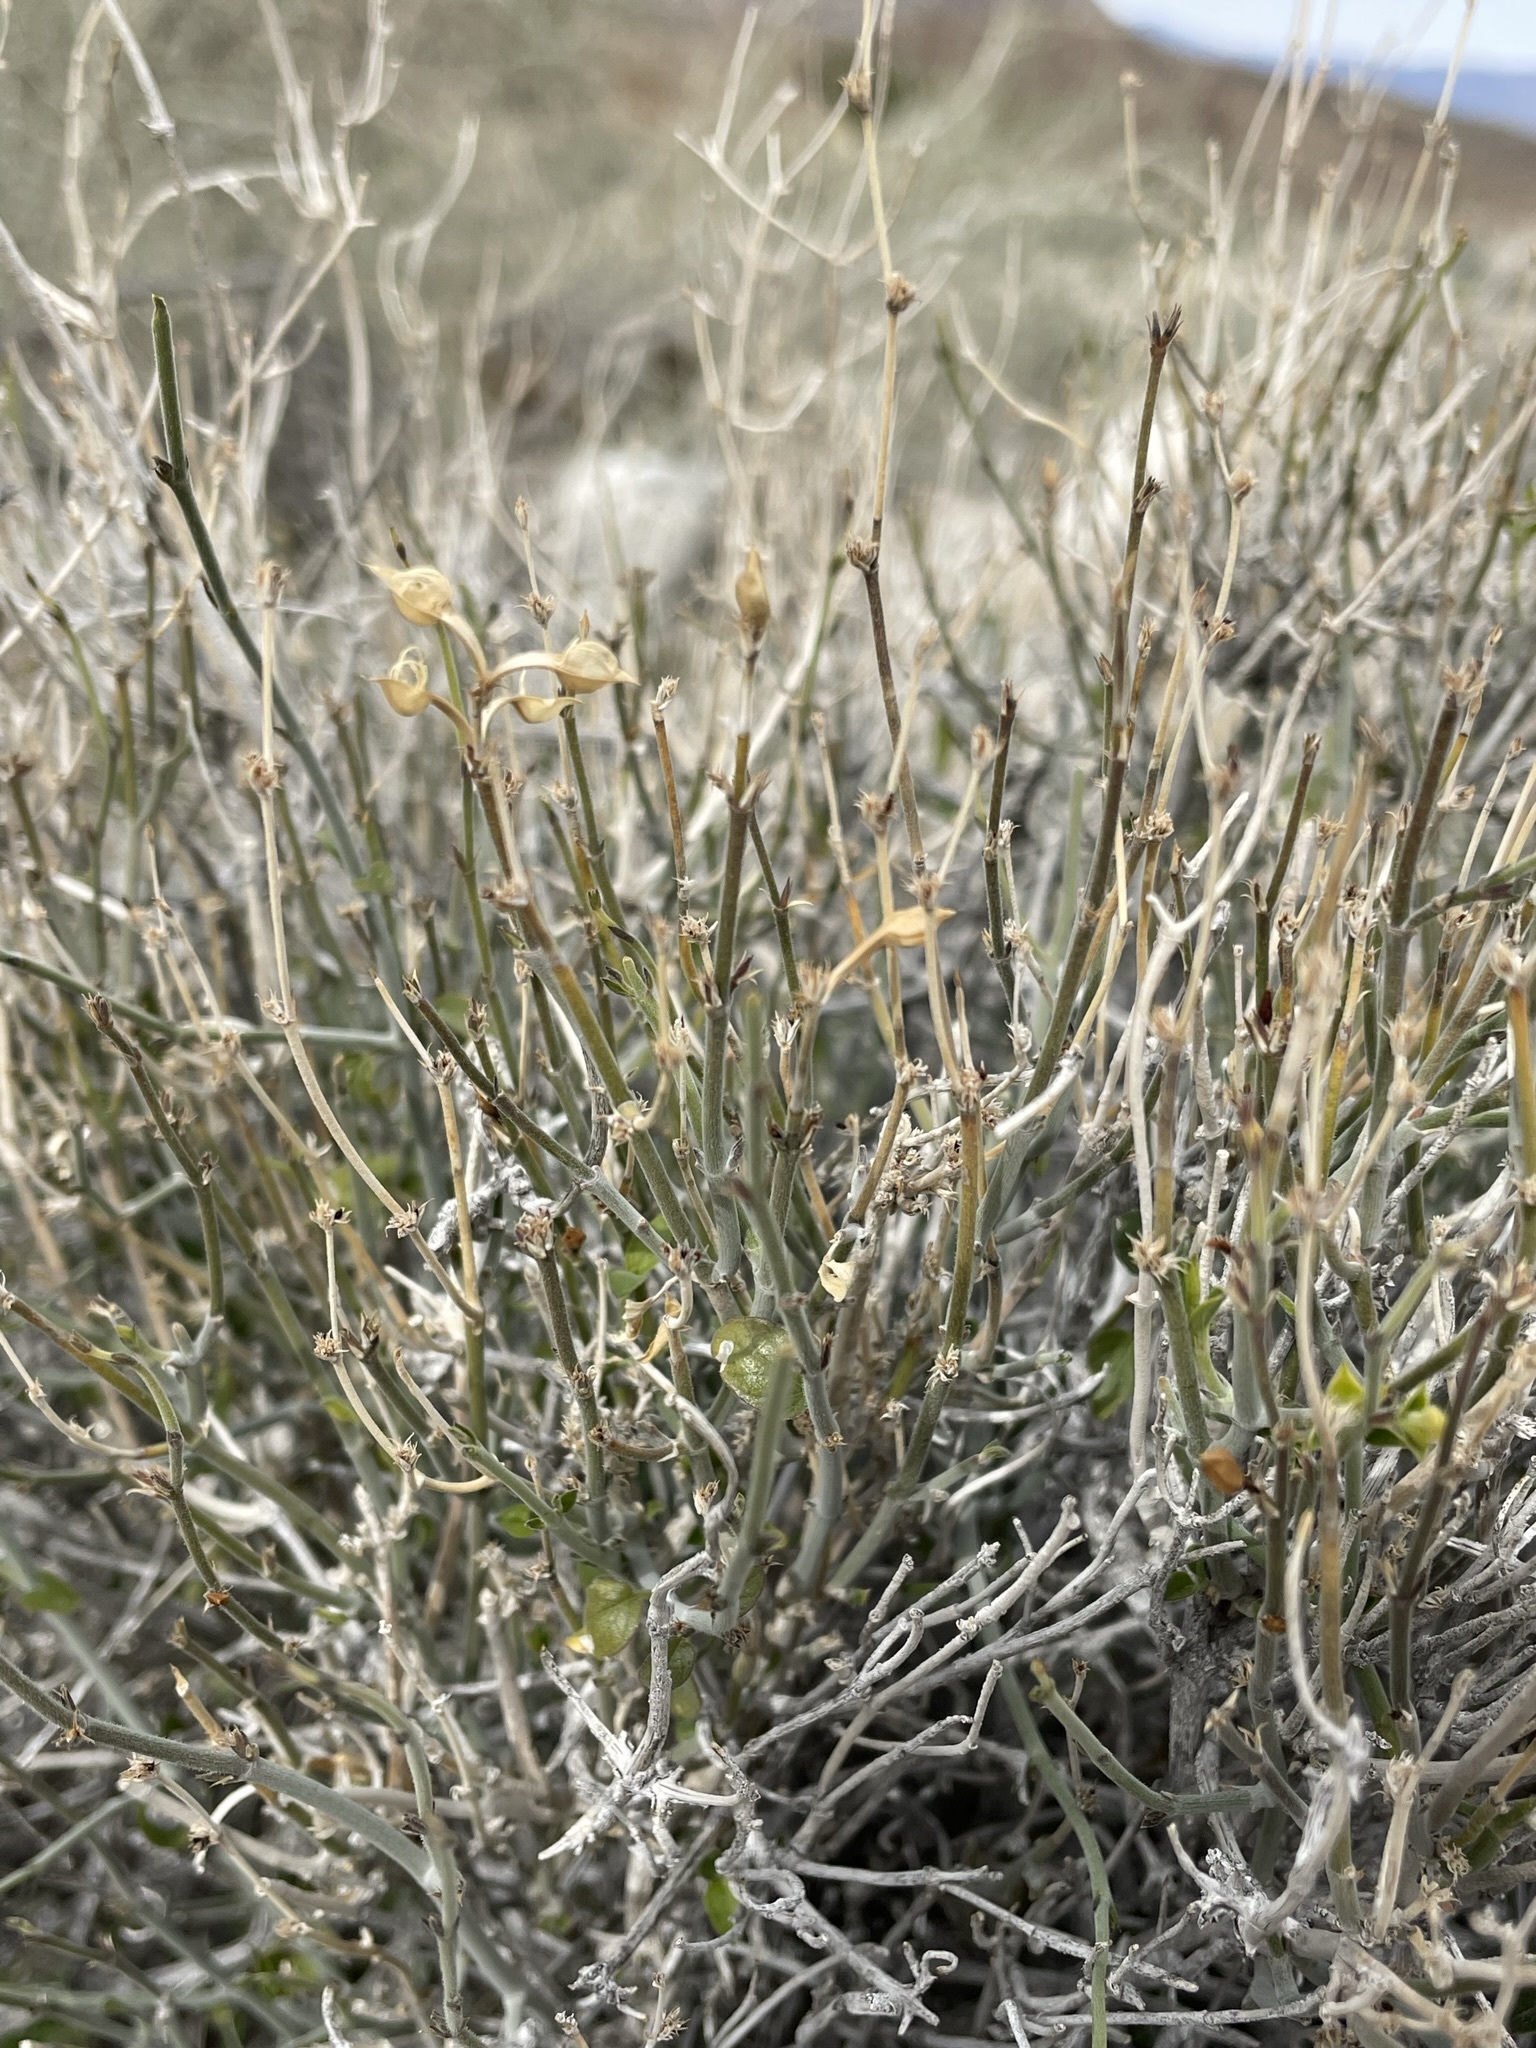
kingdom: Plantae
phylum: Tracheophyta
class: Magnoliopsida
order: Lamiales
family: Acanthaceae
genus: Carlowrightia
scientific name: Carlowrightia arizonica
